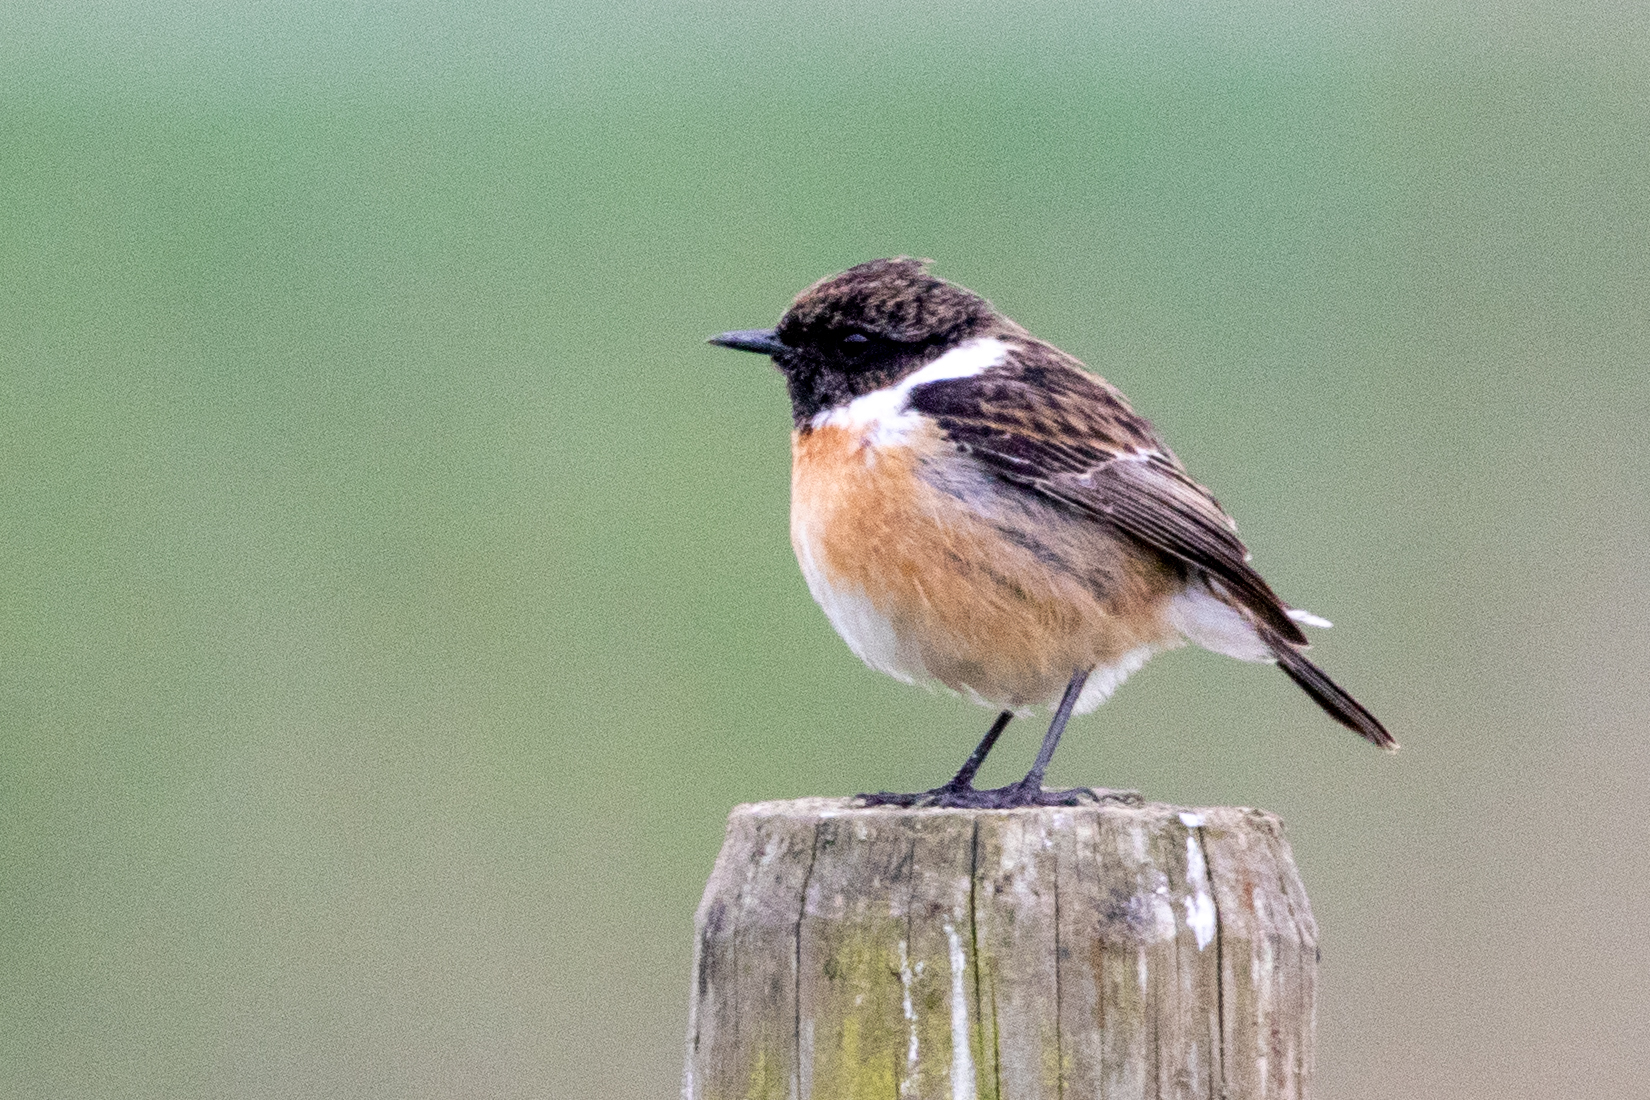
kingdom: Animalia
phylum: Chordata
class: Aves
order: Passeriformes
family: Muscicapidae
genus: Saxicola
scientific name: Saxicola rubicola
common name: European stonechat
